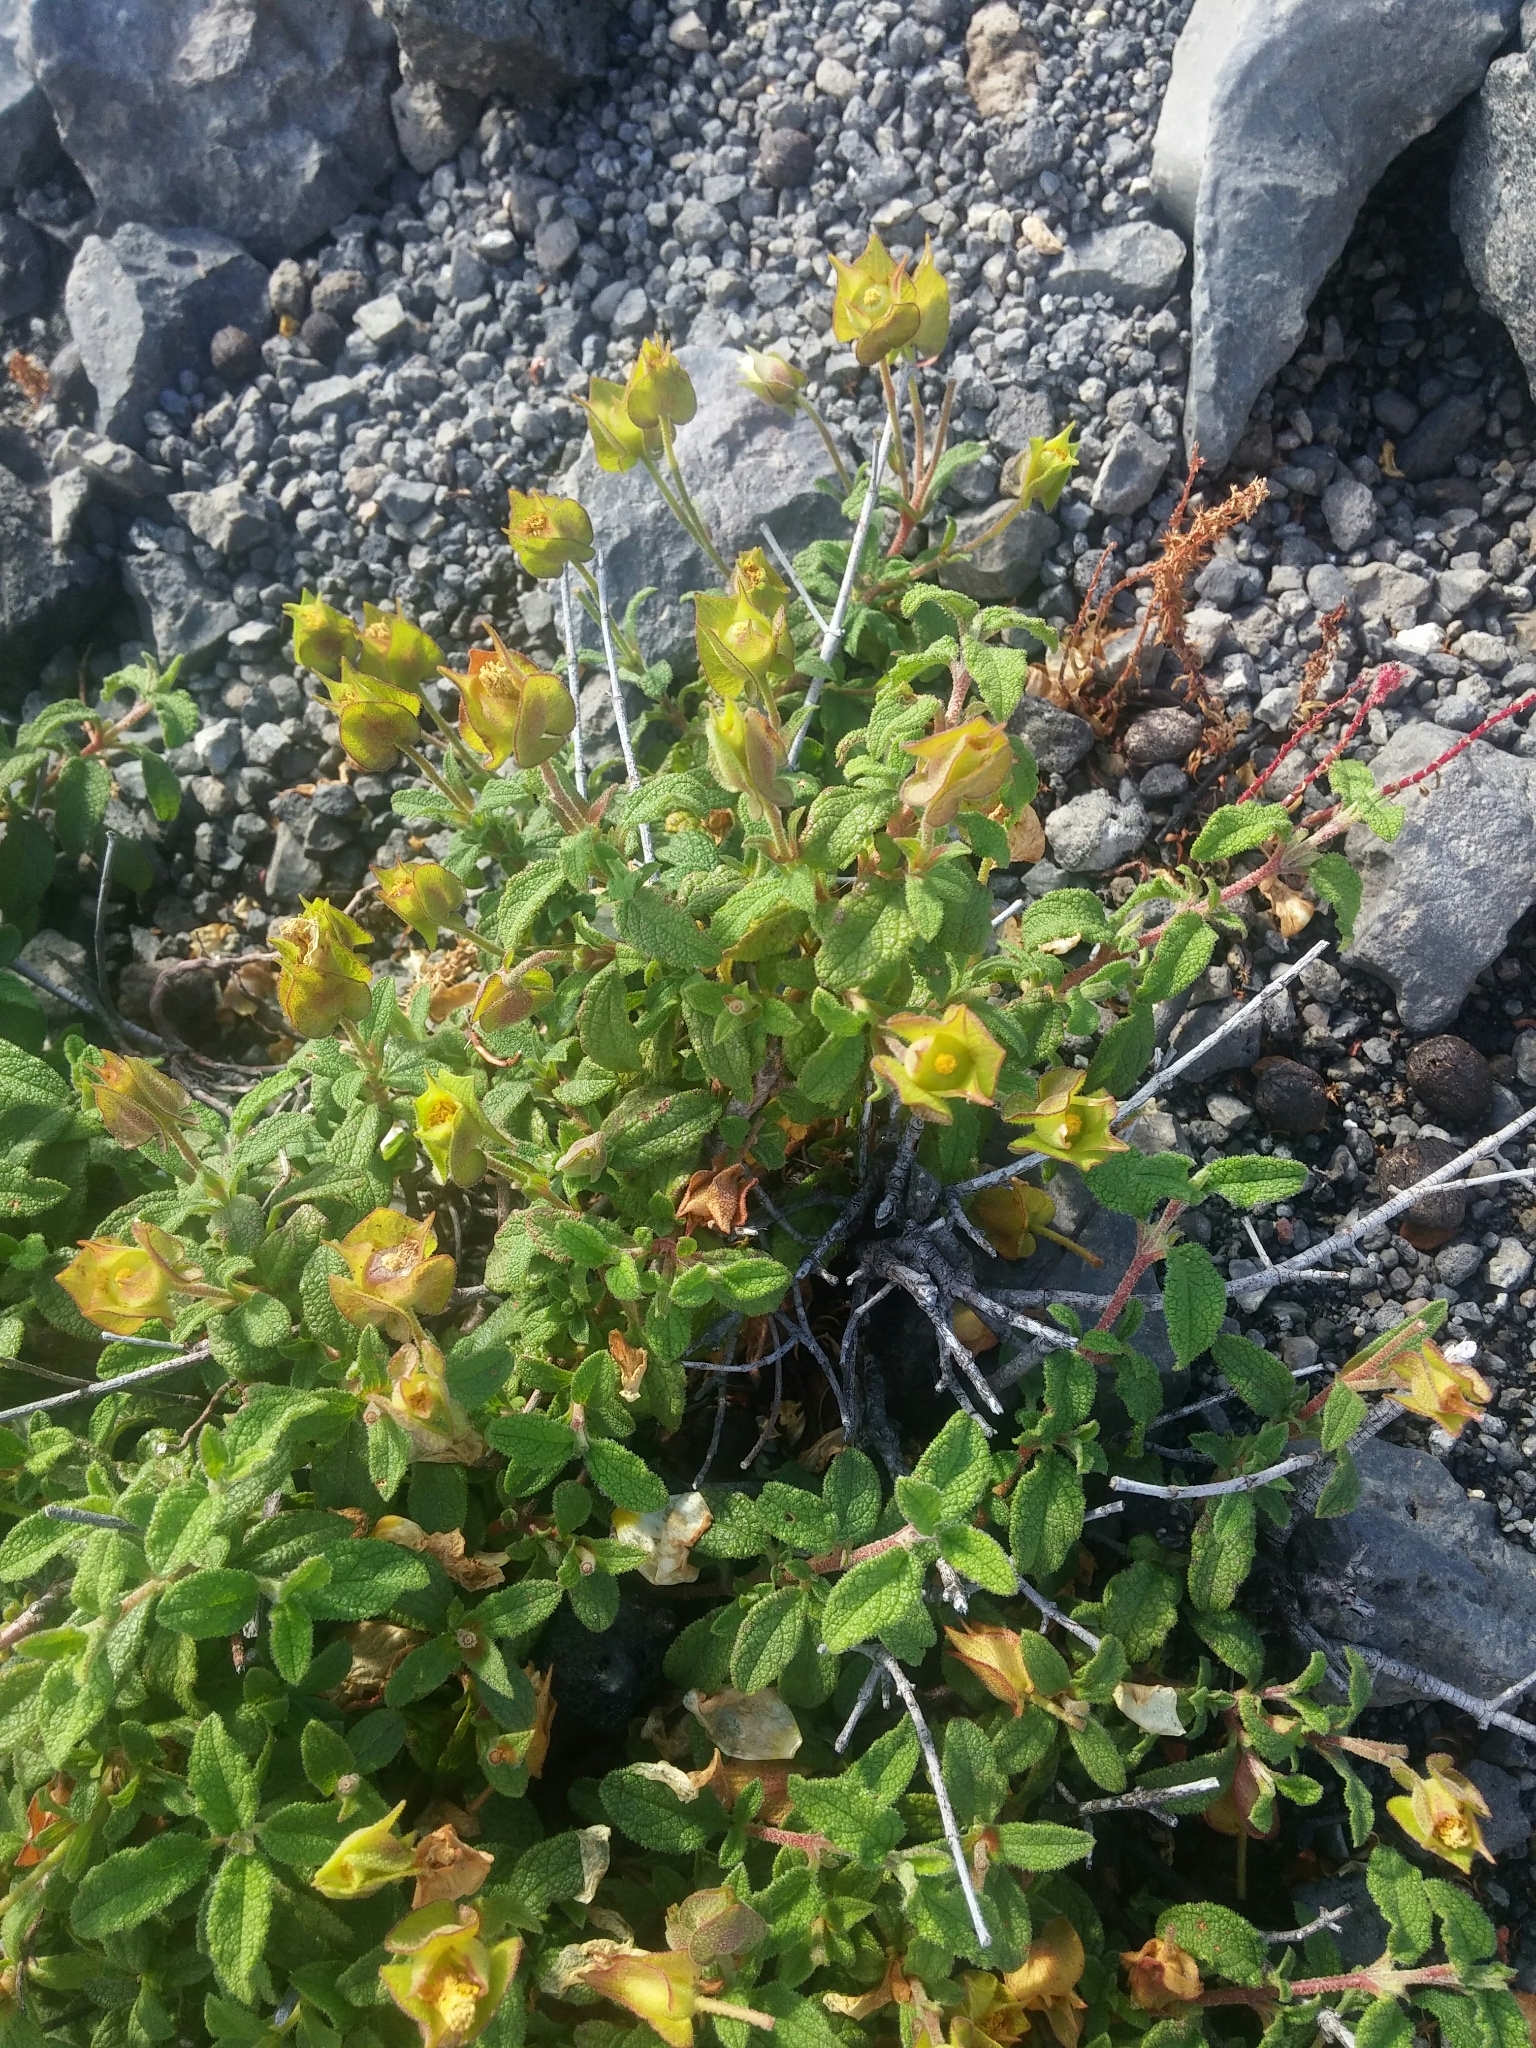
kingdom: Plantae
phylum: Tracheophyta
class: Magnoliopsida
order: Malvales
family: Cistaceae
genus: Cistus
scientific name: Cistus salviifolius
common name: Salvia cistus
